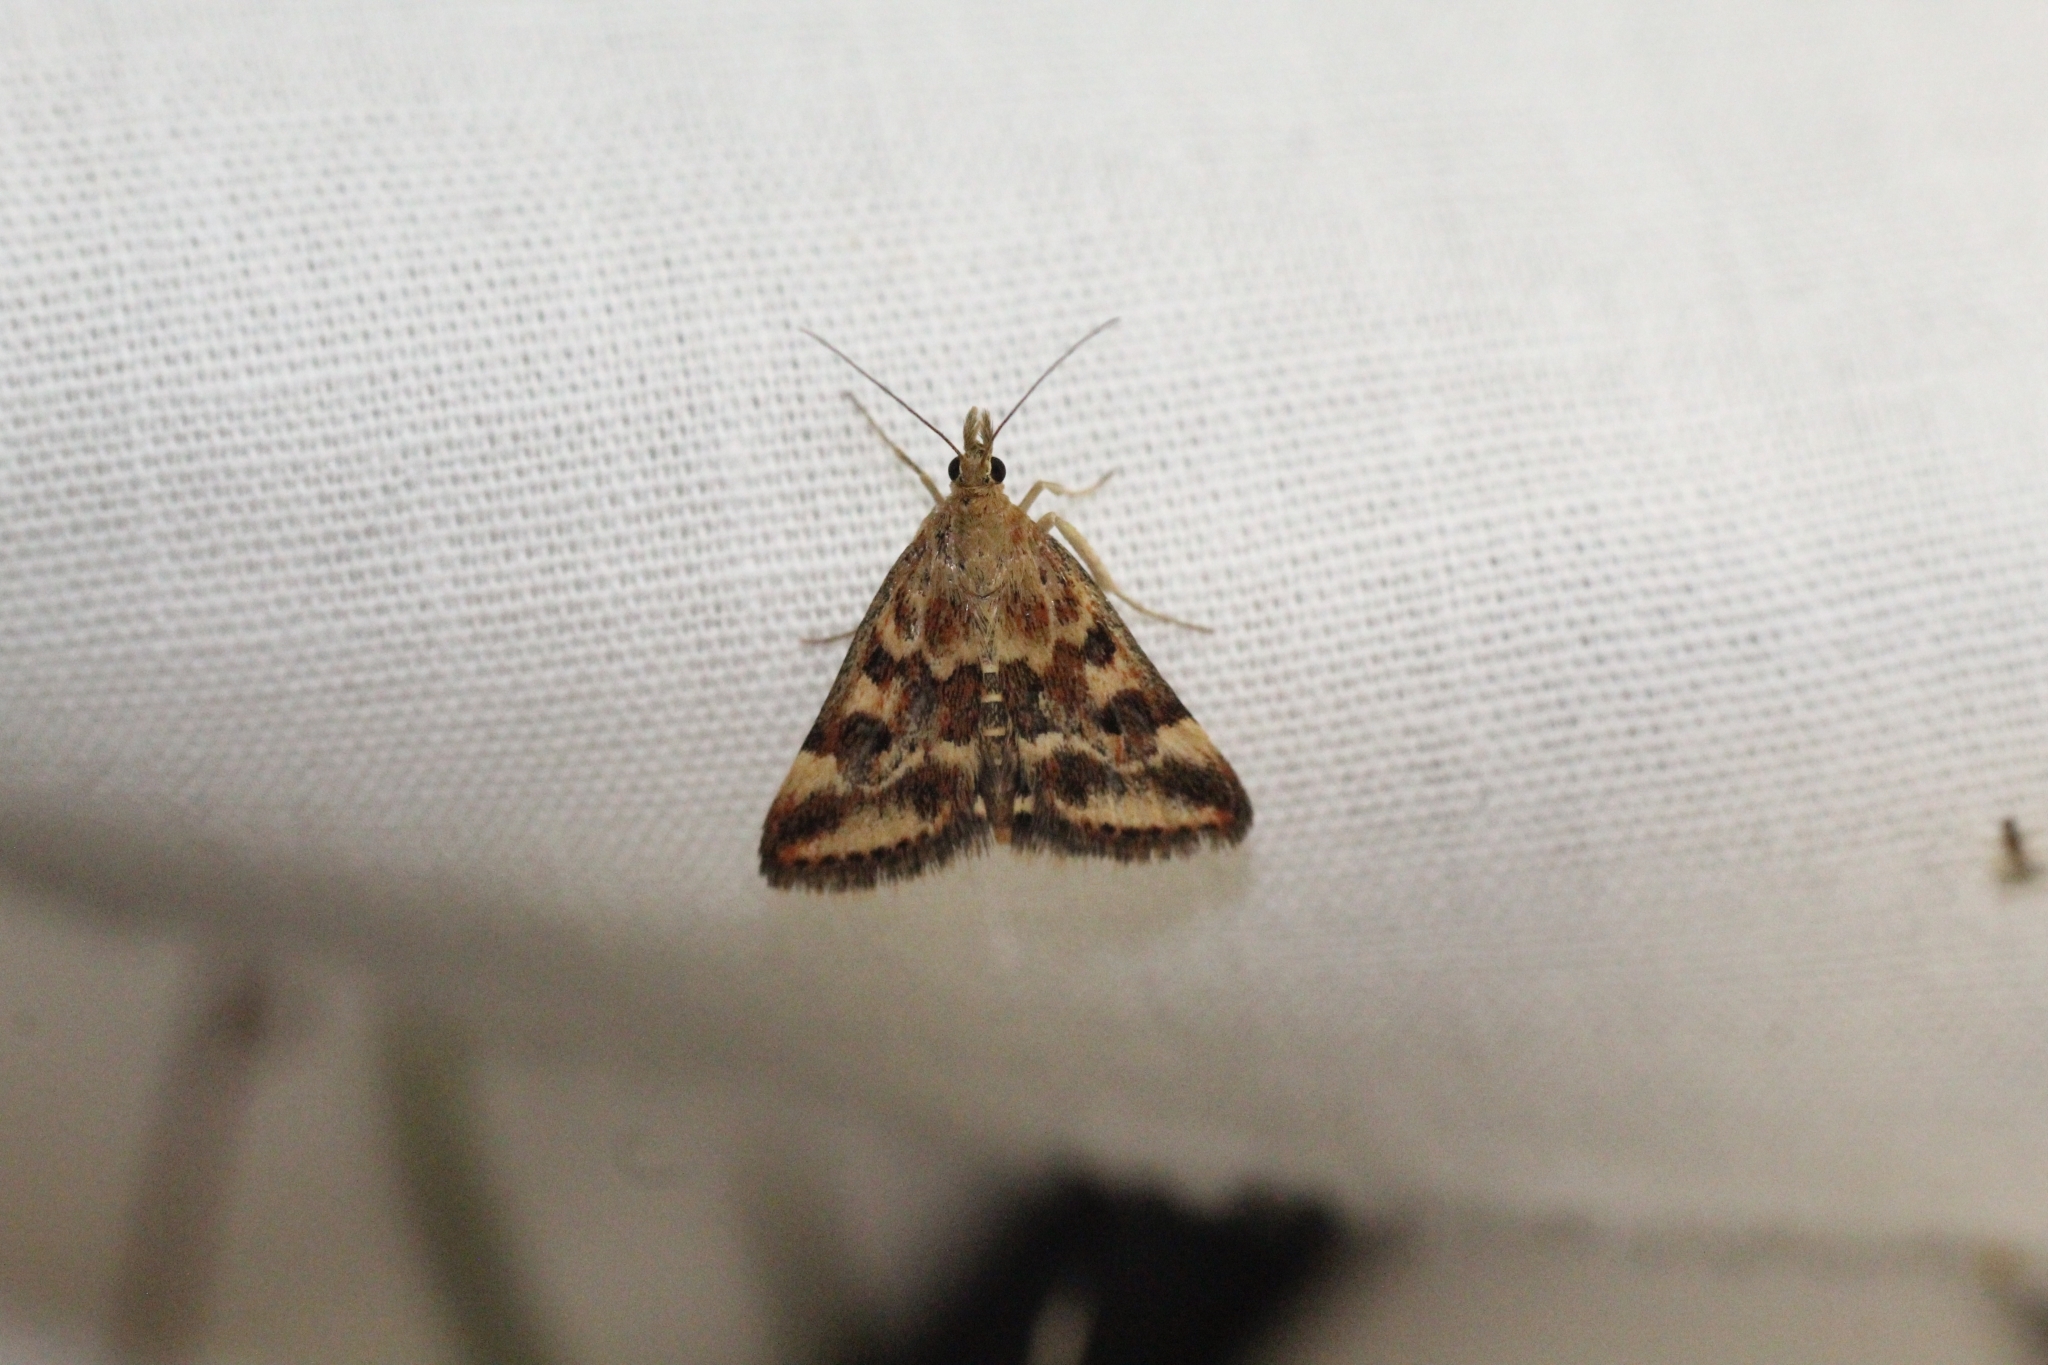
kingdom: Animalia
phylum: Arthropoda
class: Insecta
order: Lepidoptera
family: Crambidae
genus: Pyrausta
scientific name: Pyrausta despicata
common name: Straw-barred pearl
